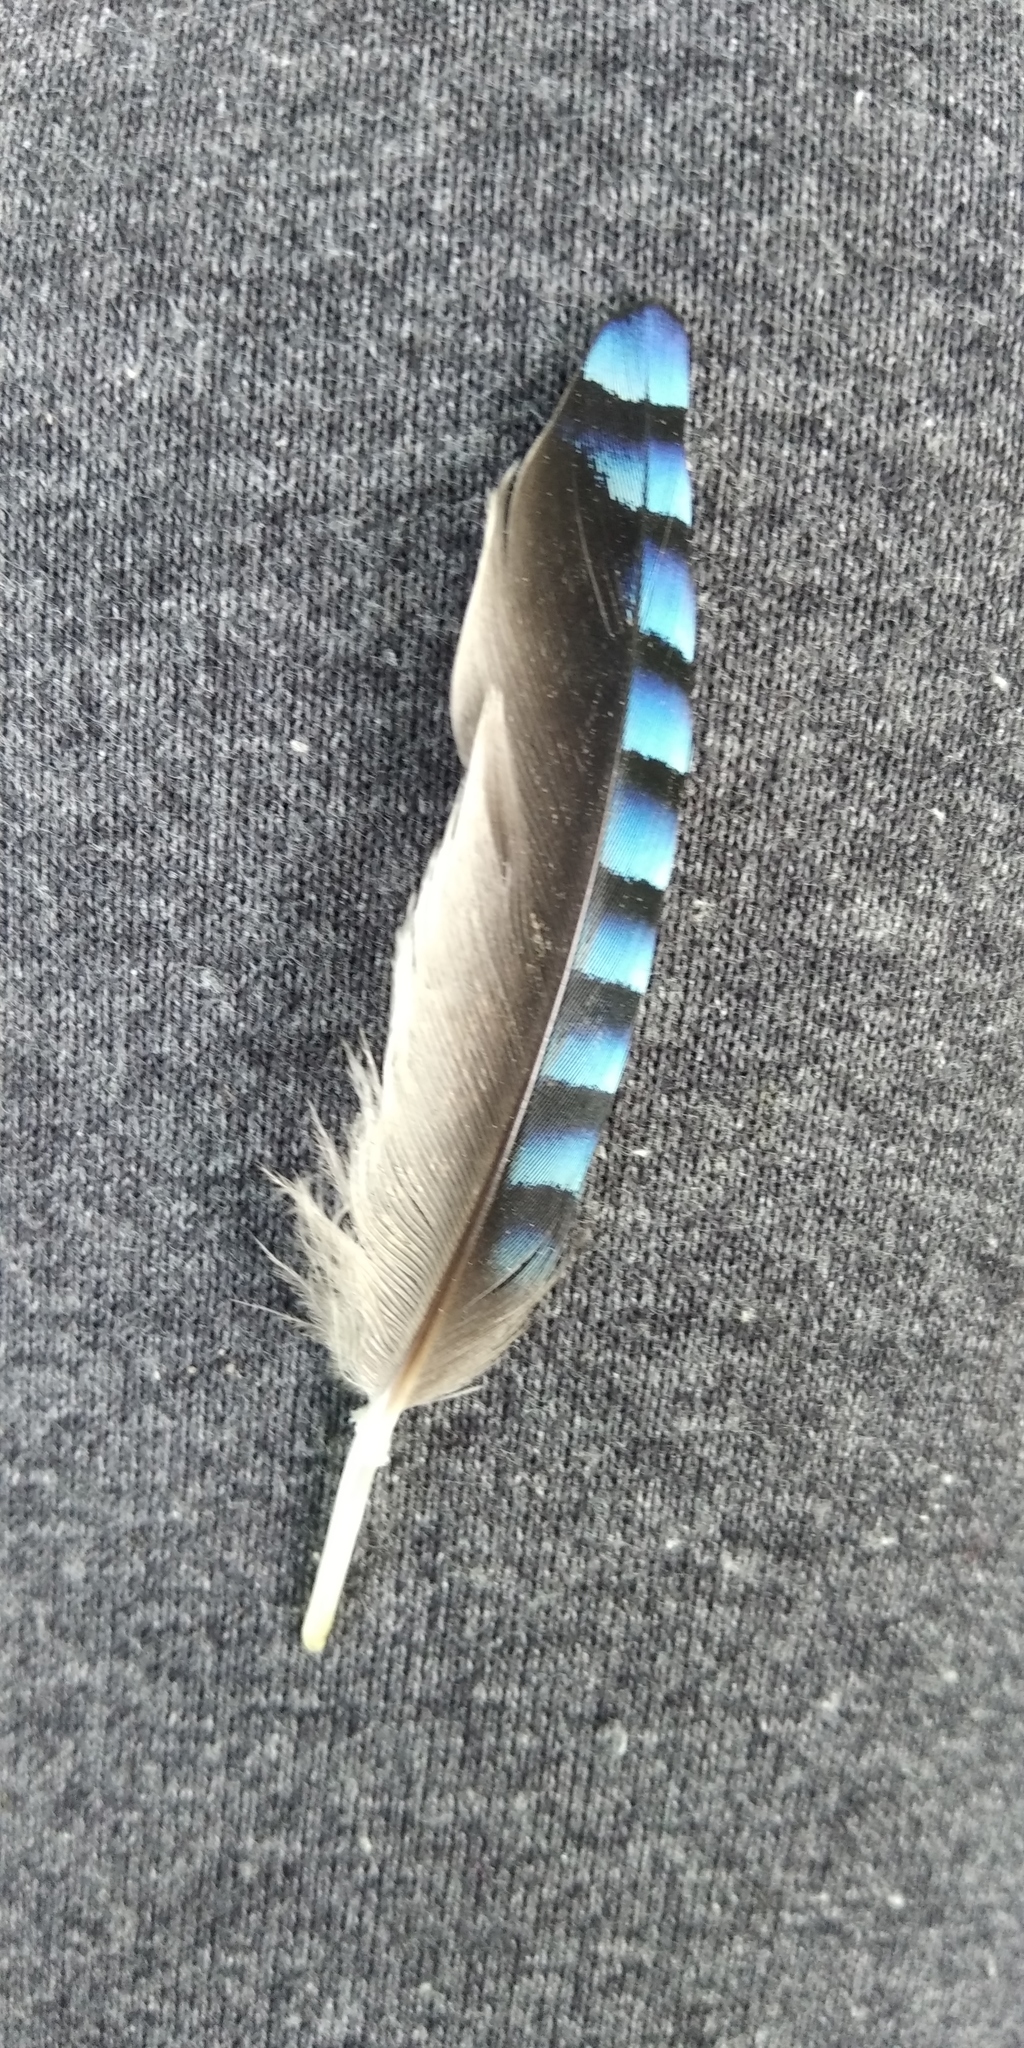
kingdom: Animalia
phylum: Chordata
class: Aves
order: Passeriformes
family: Corvidae
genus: Garrulus
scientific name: Garrulus glandarius
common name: Eurasian jay
